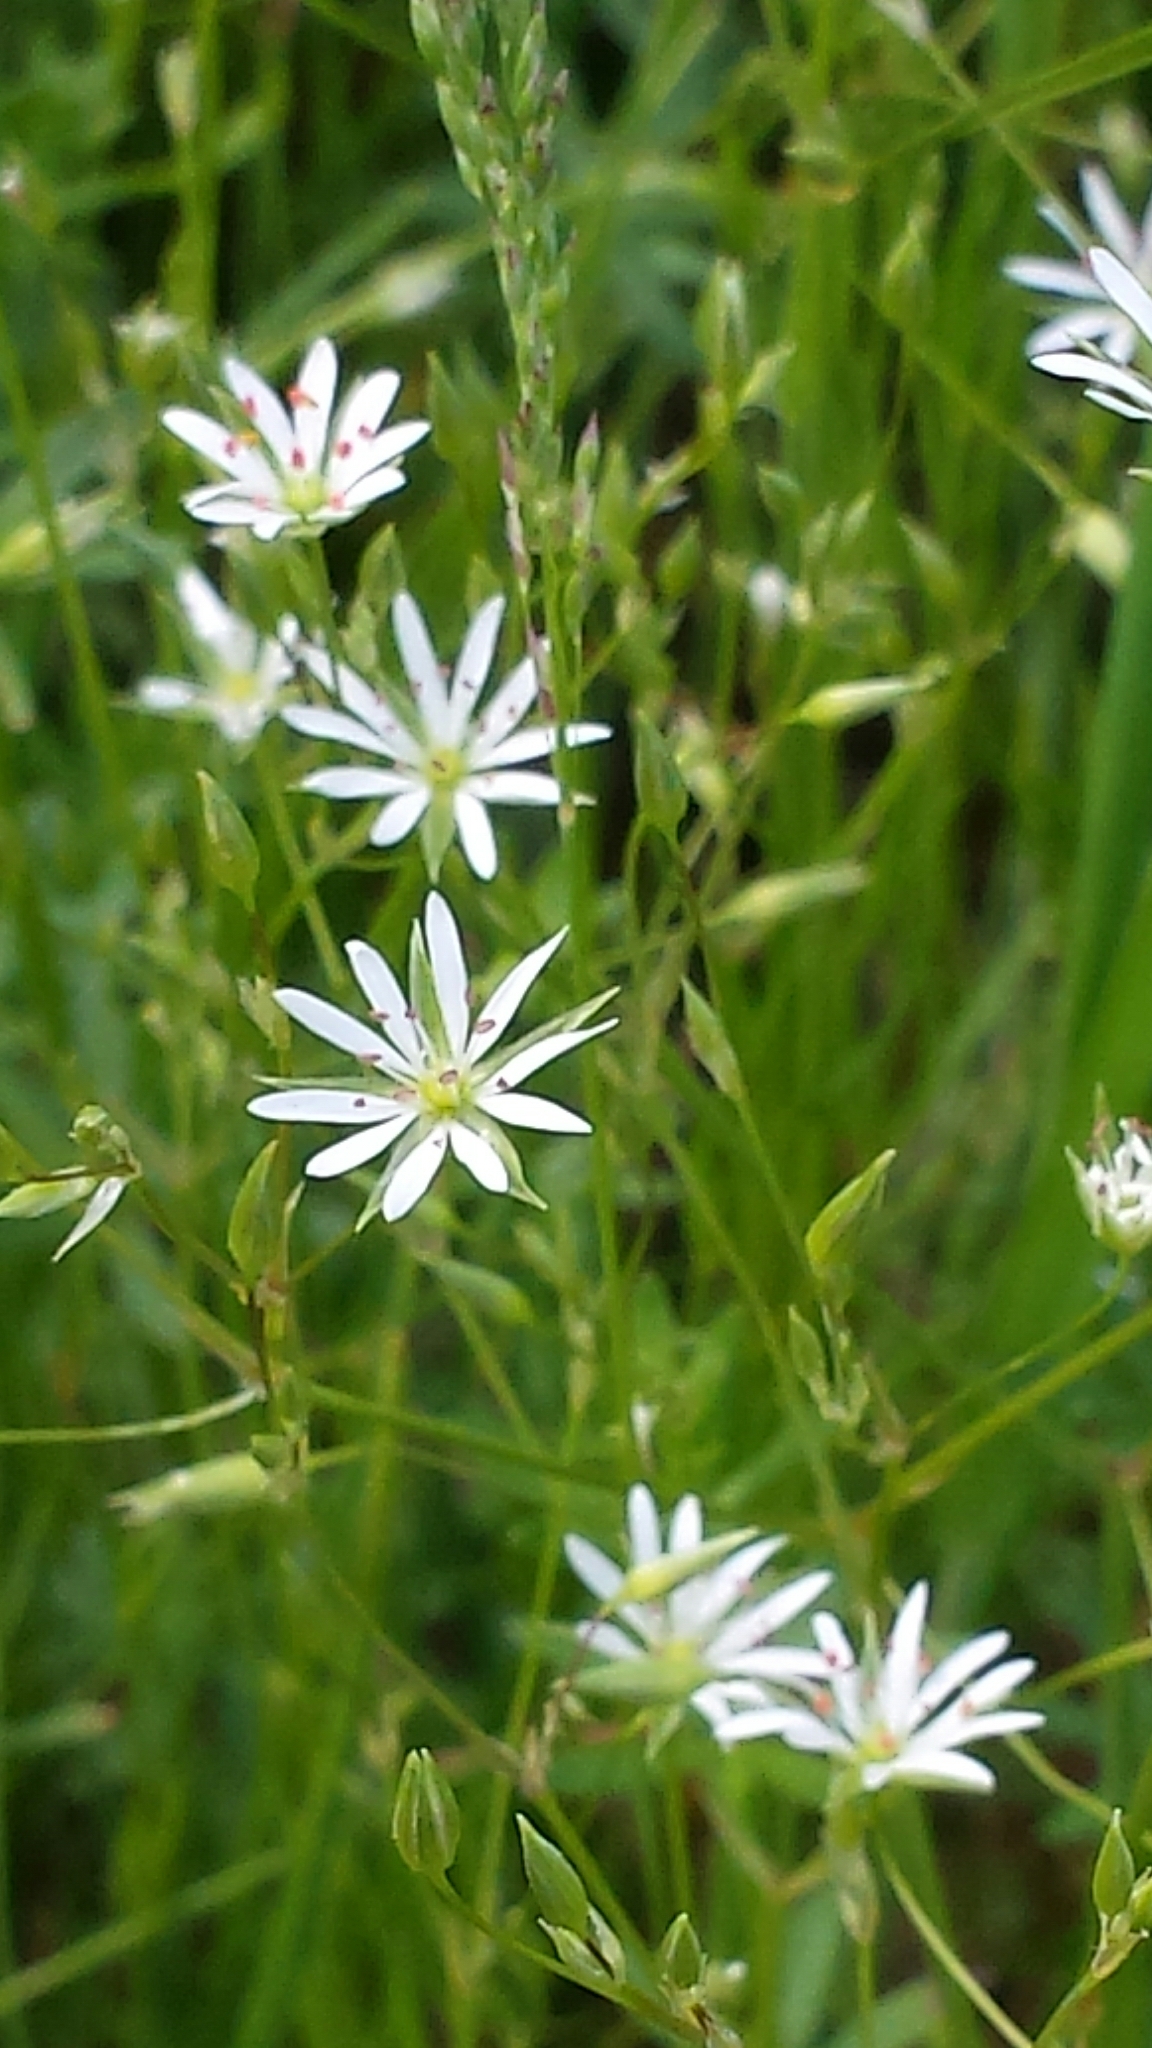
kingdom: Plantae
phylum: Tracheophyta
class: Magnoliopsida
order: Caryophyllales
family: Caryophyllaceae
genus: Stellaria
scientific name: Stellaria graminea
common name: Grass-like starwort
